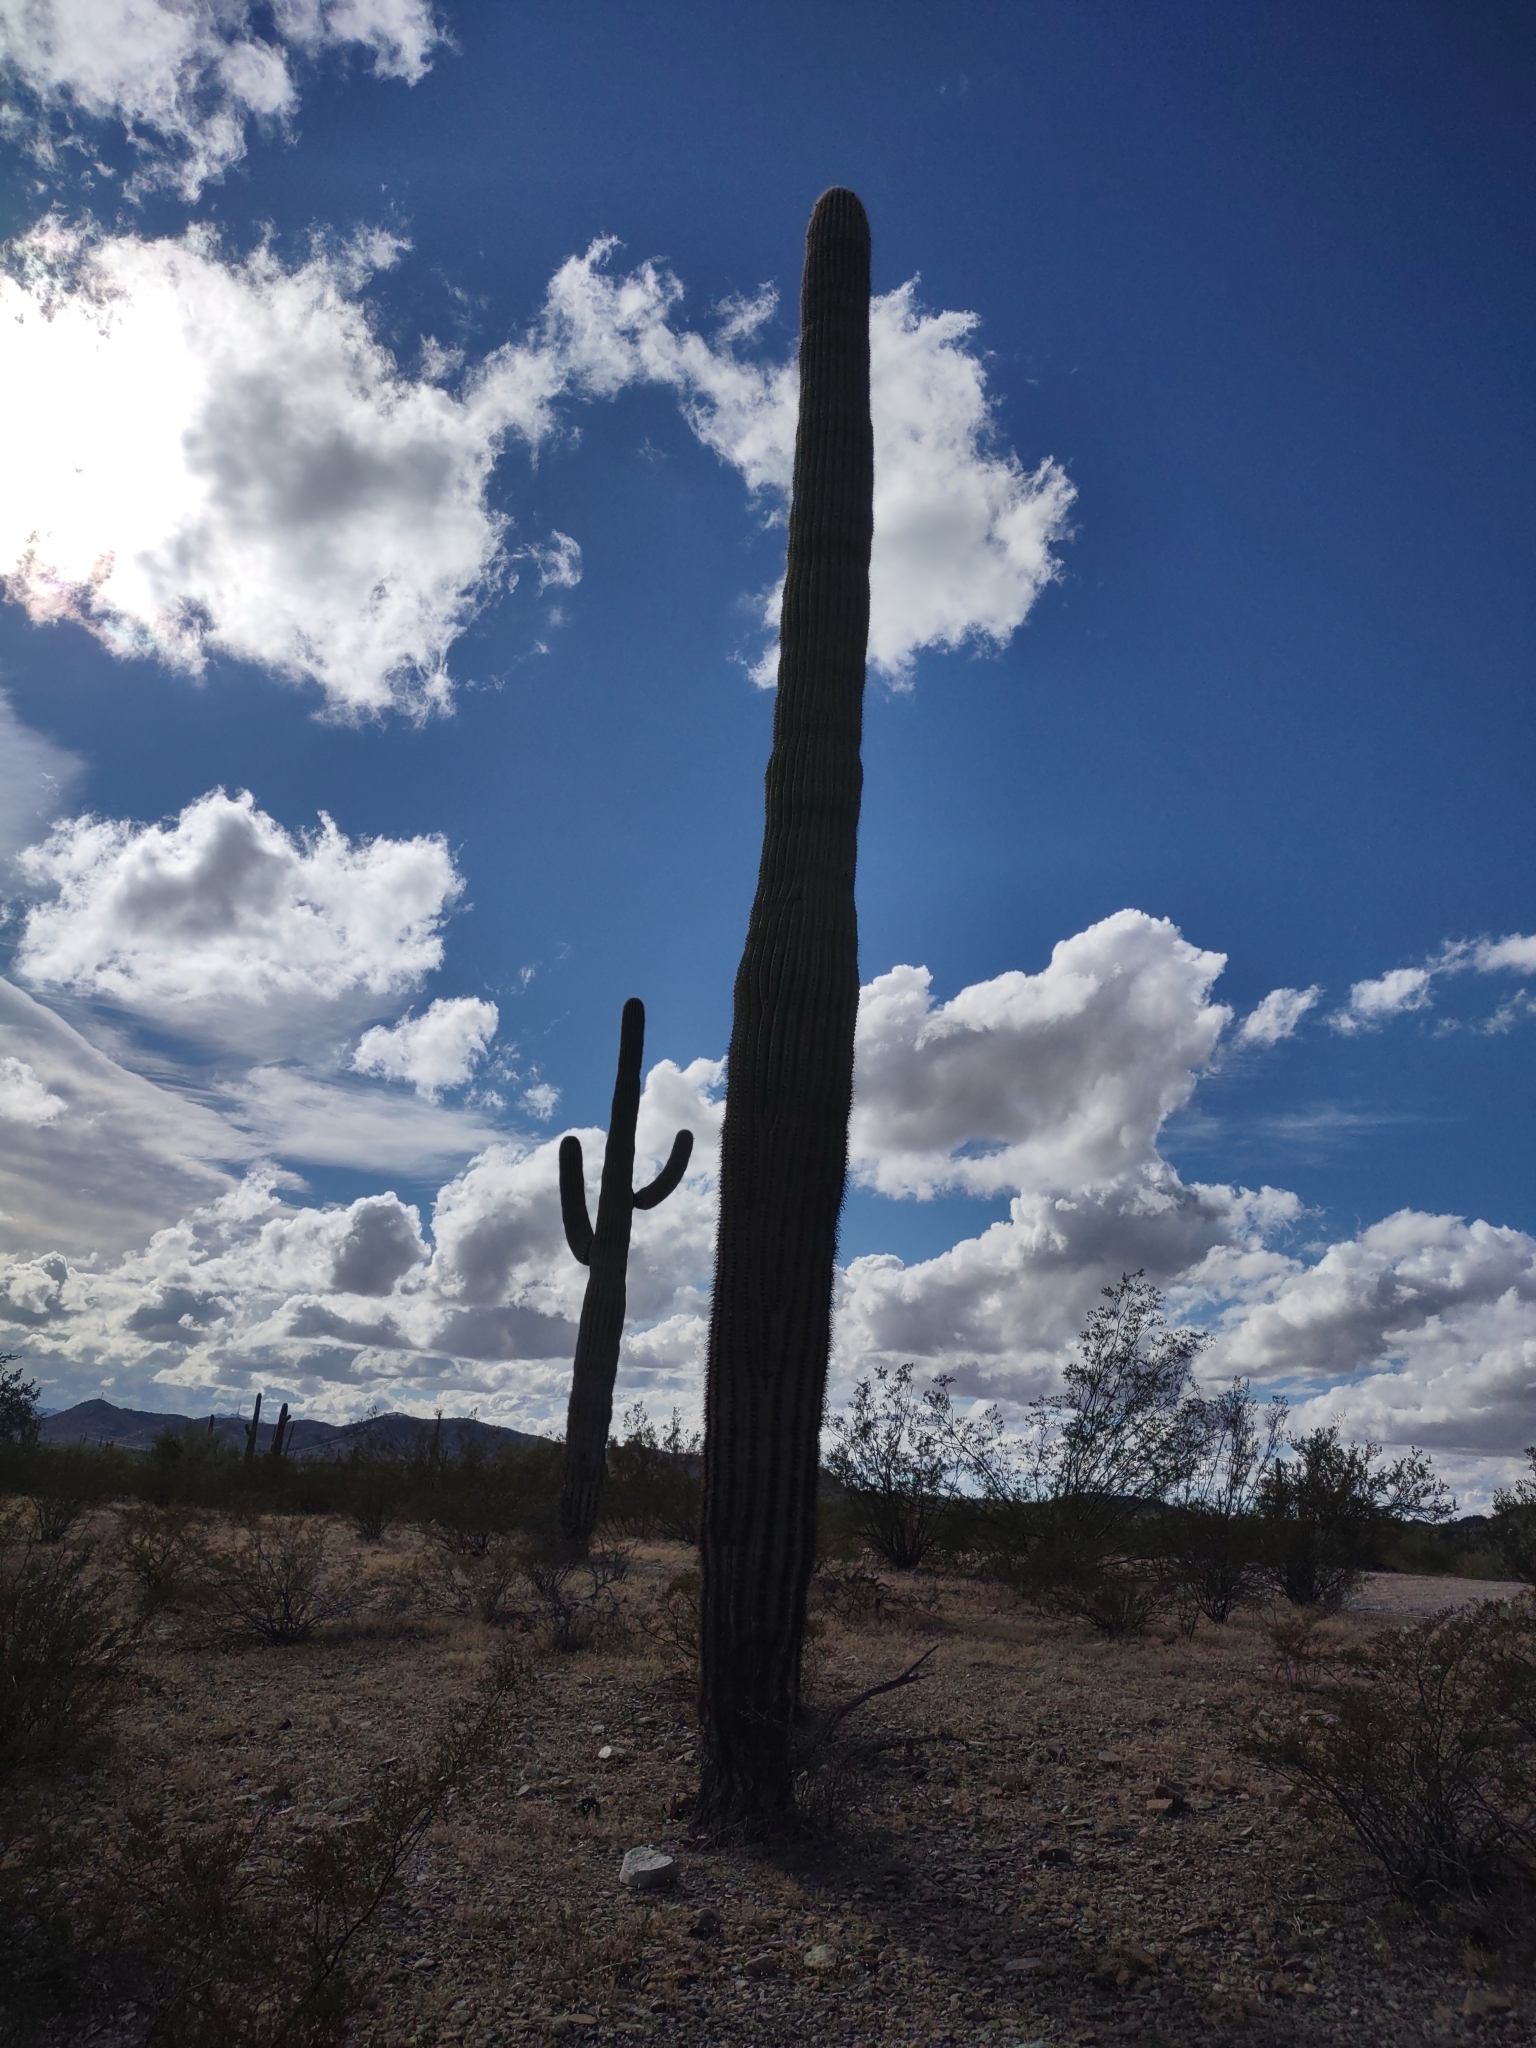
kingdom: Plantae
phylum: Tracheophyta
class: Magnoliopsida
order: Caryophyllales
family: Cactaceae
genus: Carnegiea
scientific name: Carnegiea gigantea
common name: Saguaro
